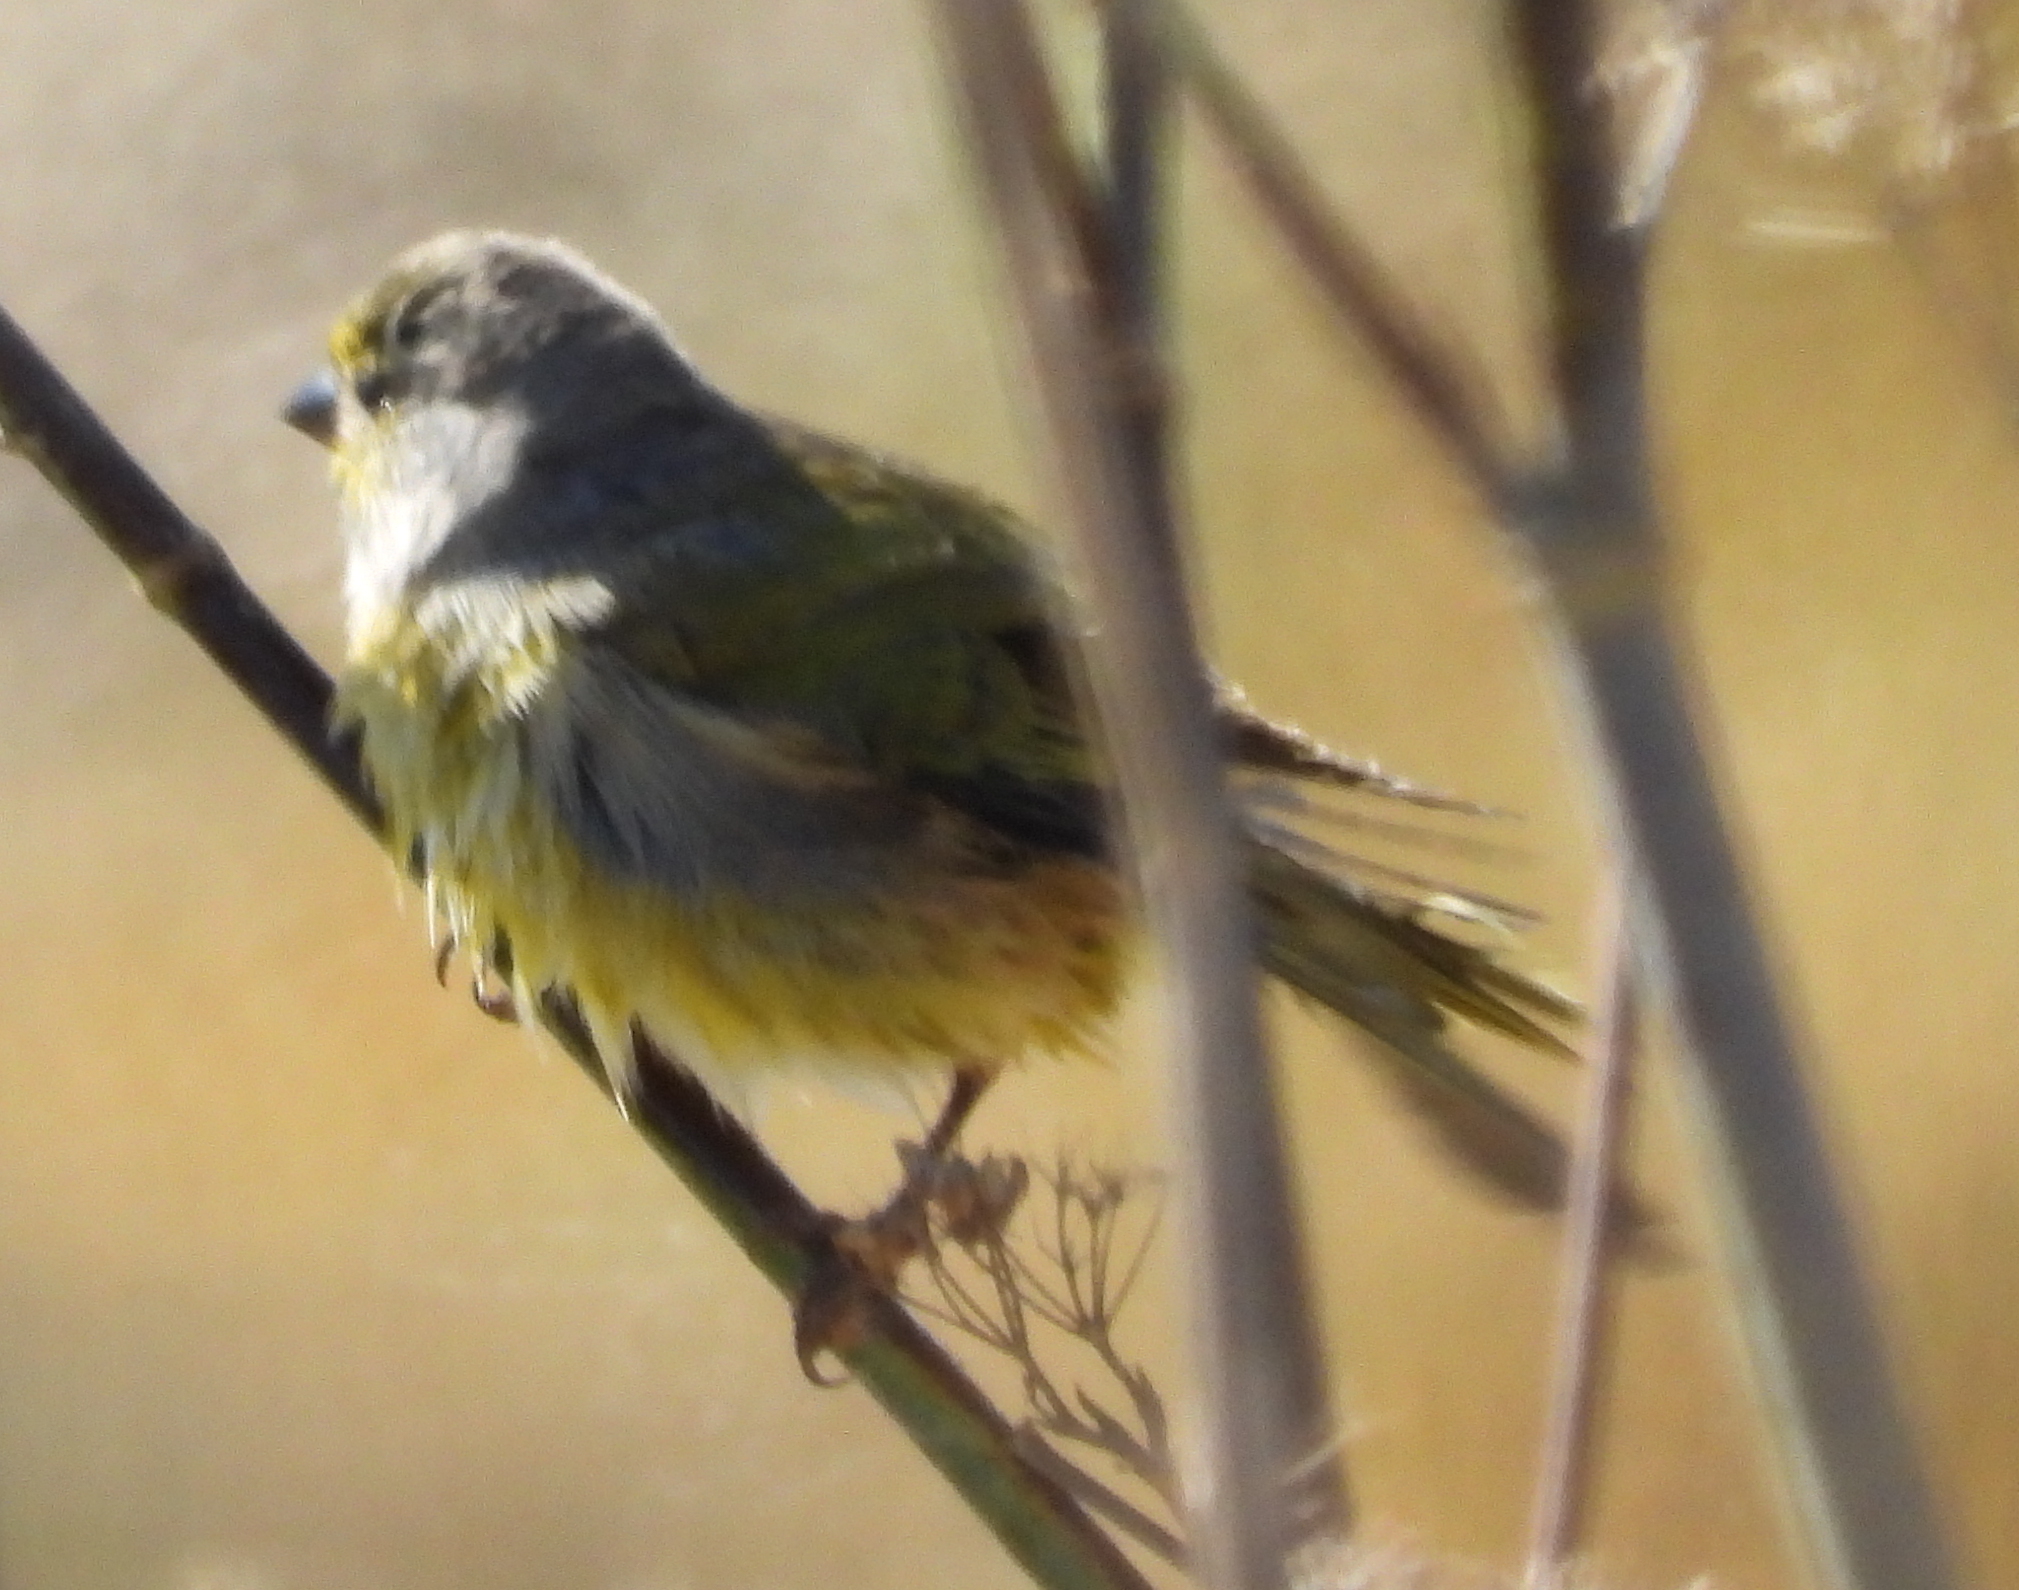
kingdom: Animalia
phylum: Chordata
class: Aves
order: Passeriformes
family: Fringillidae
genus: Serinus
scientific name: Serinus canicollis
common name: Cape canary
